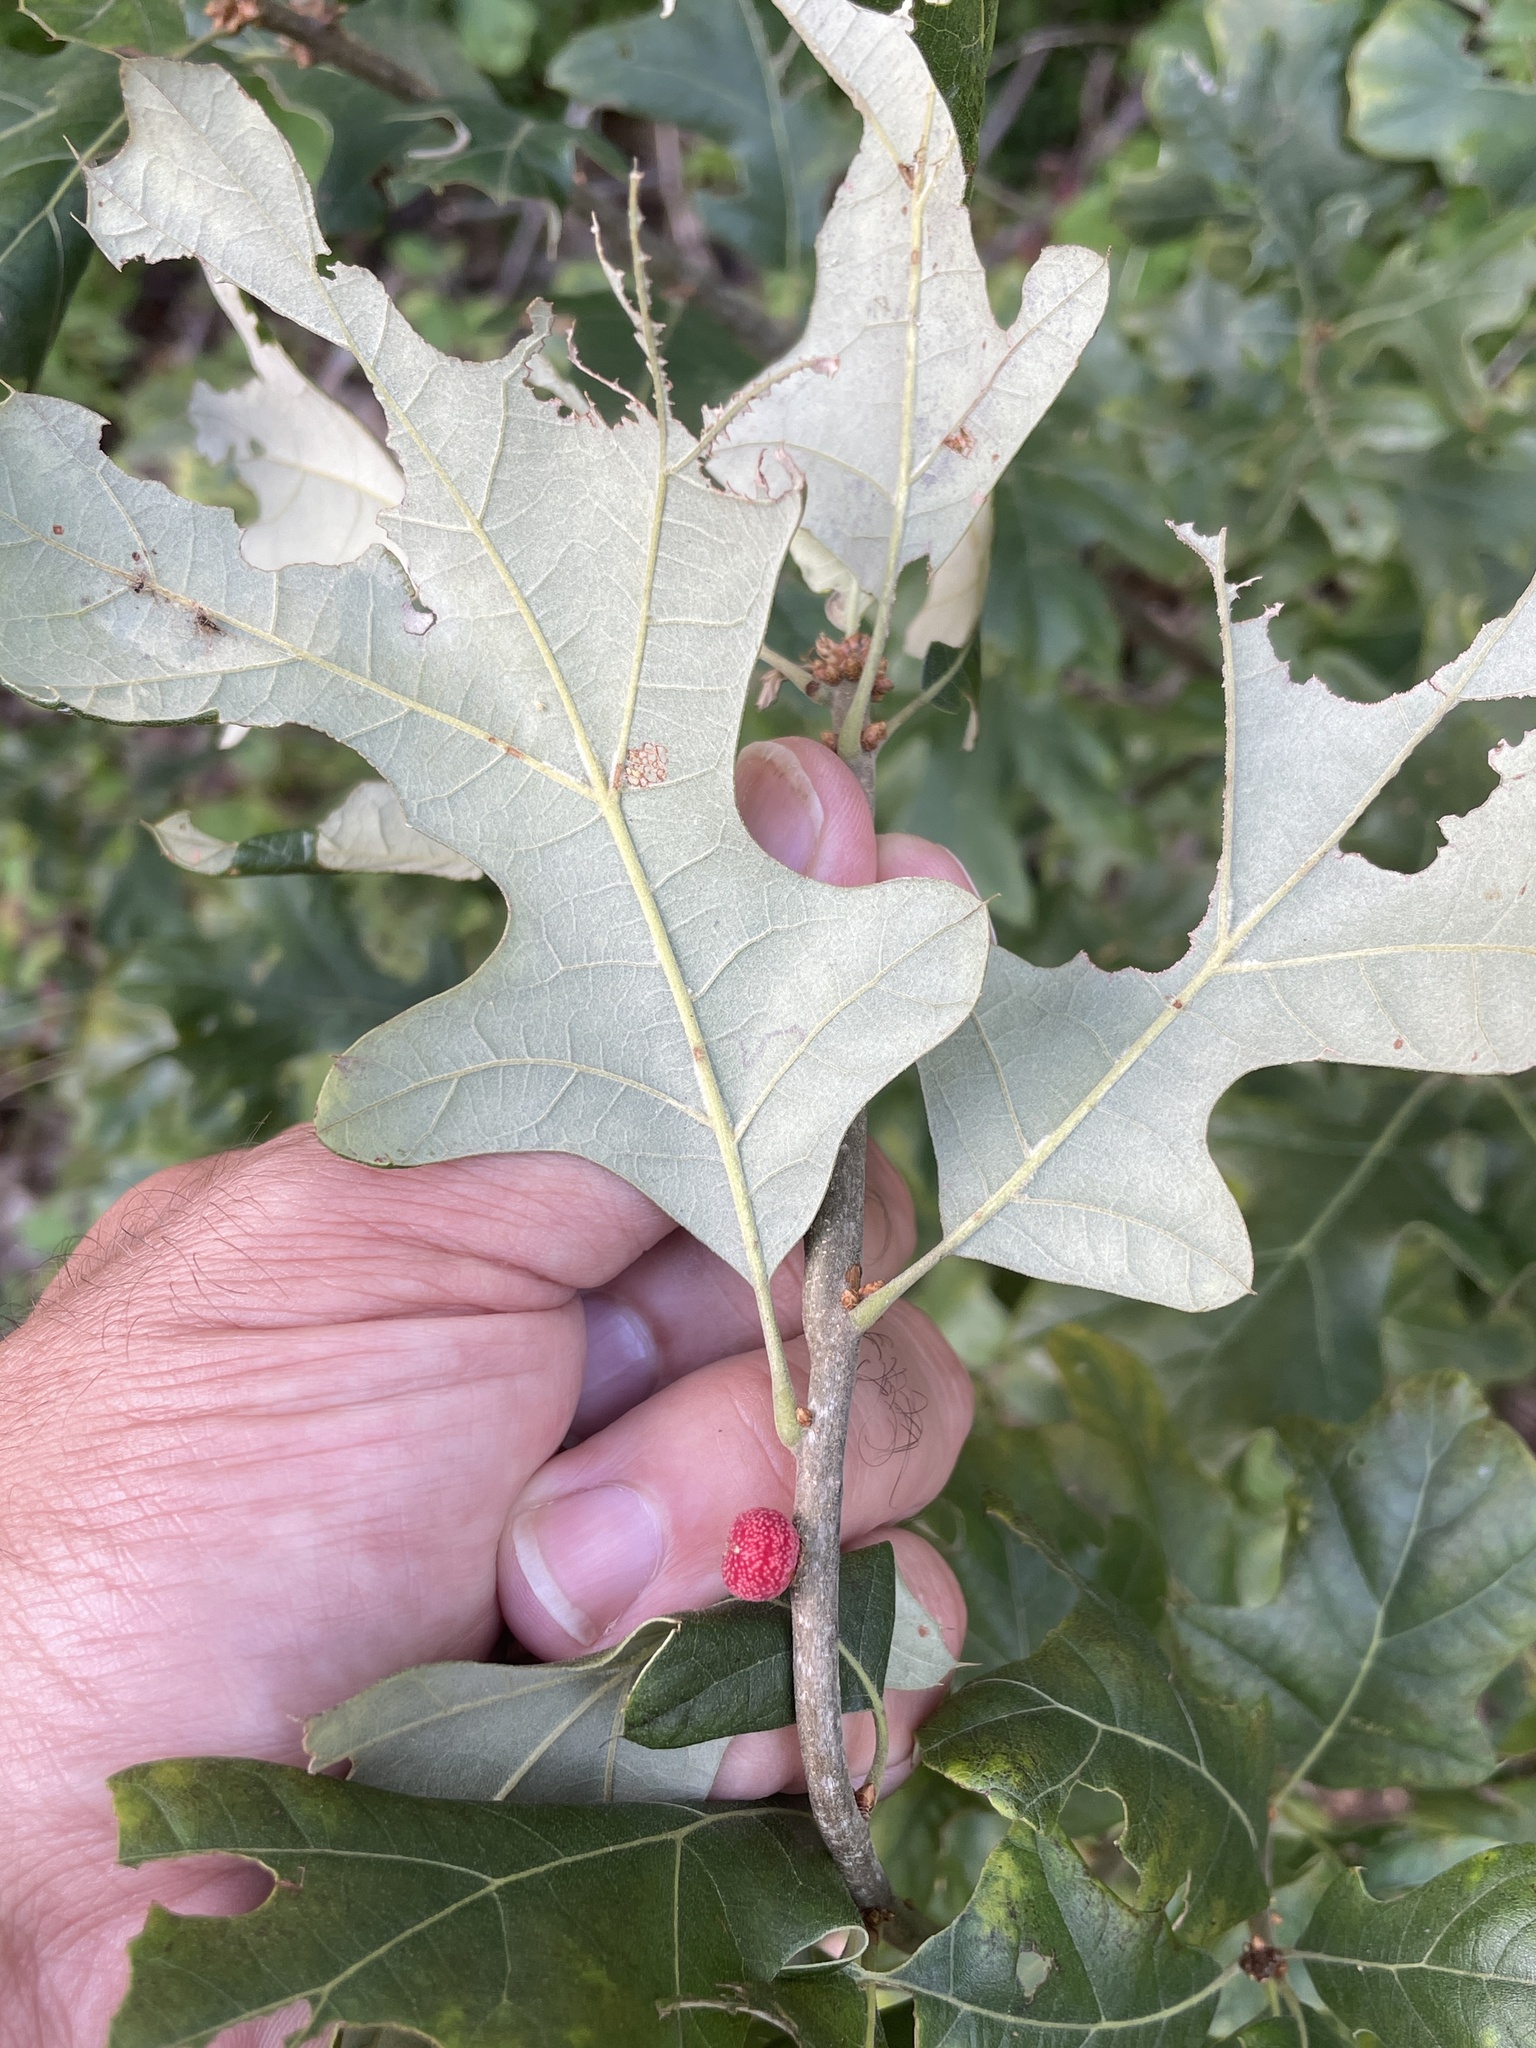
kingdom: Animalia
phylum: Arthropoda
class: Insecta
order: Hymenoptera
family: Cynipidae
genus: Kokkocynips
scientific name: Kokkocynips imbricariae
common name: Banded bullet gall wasp
